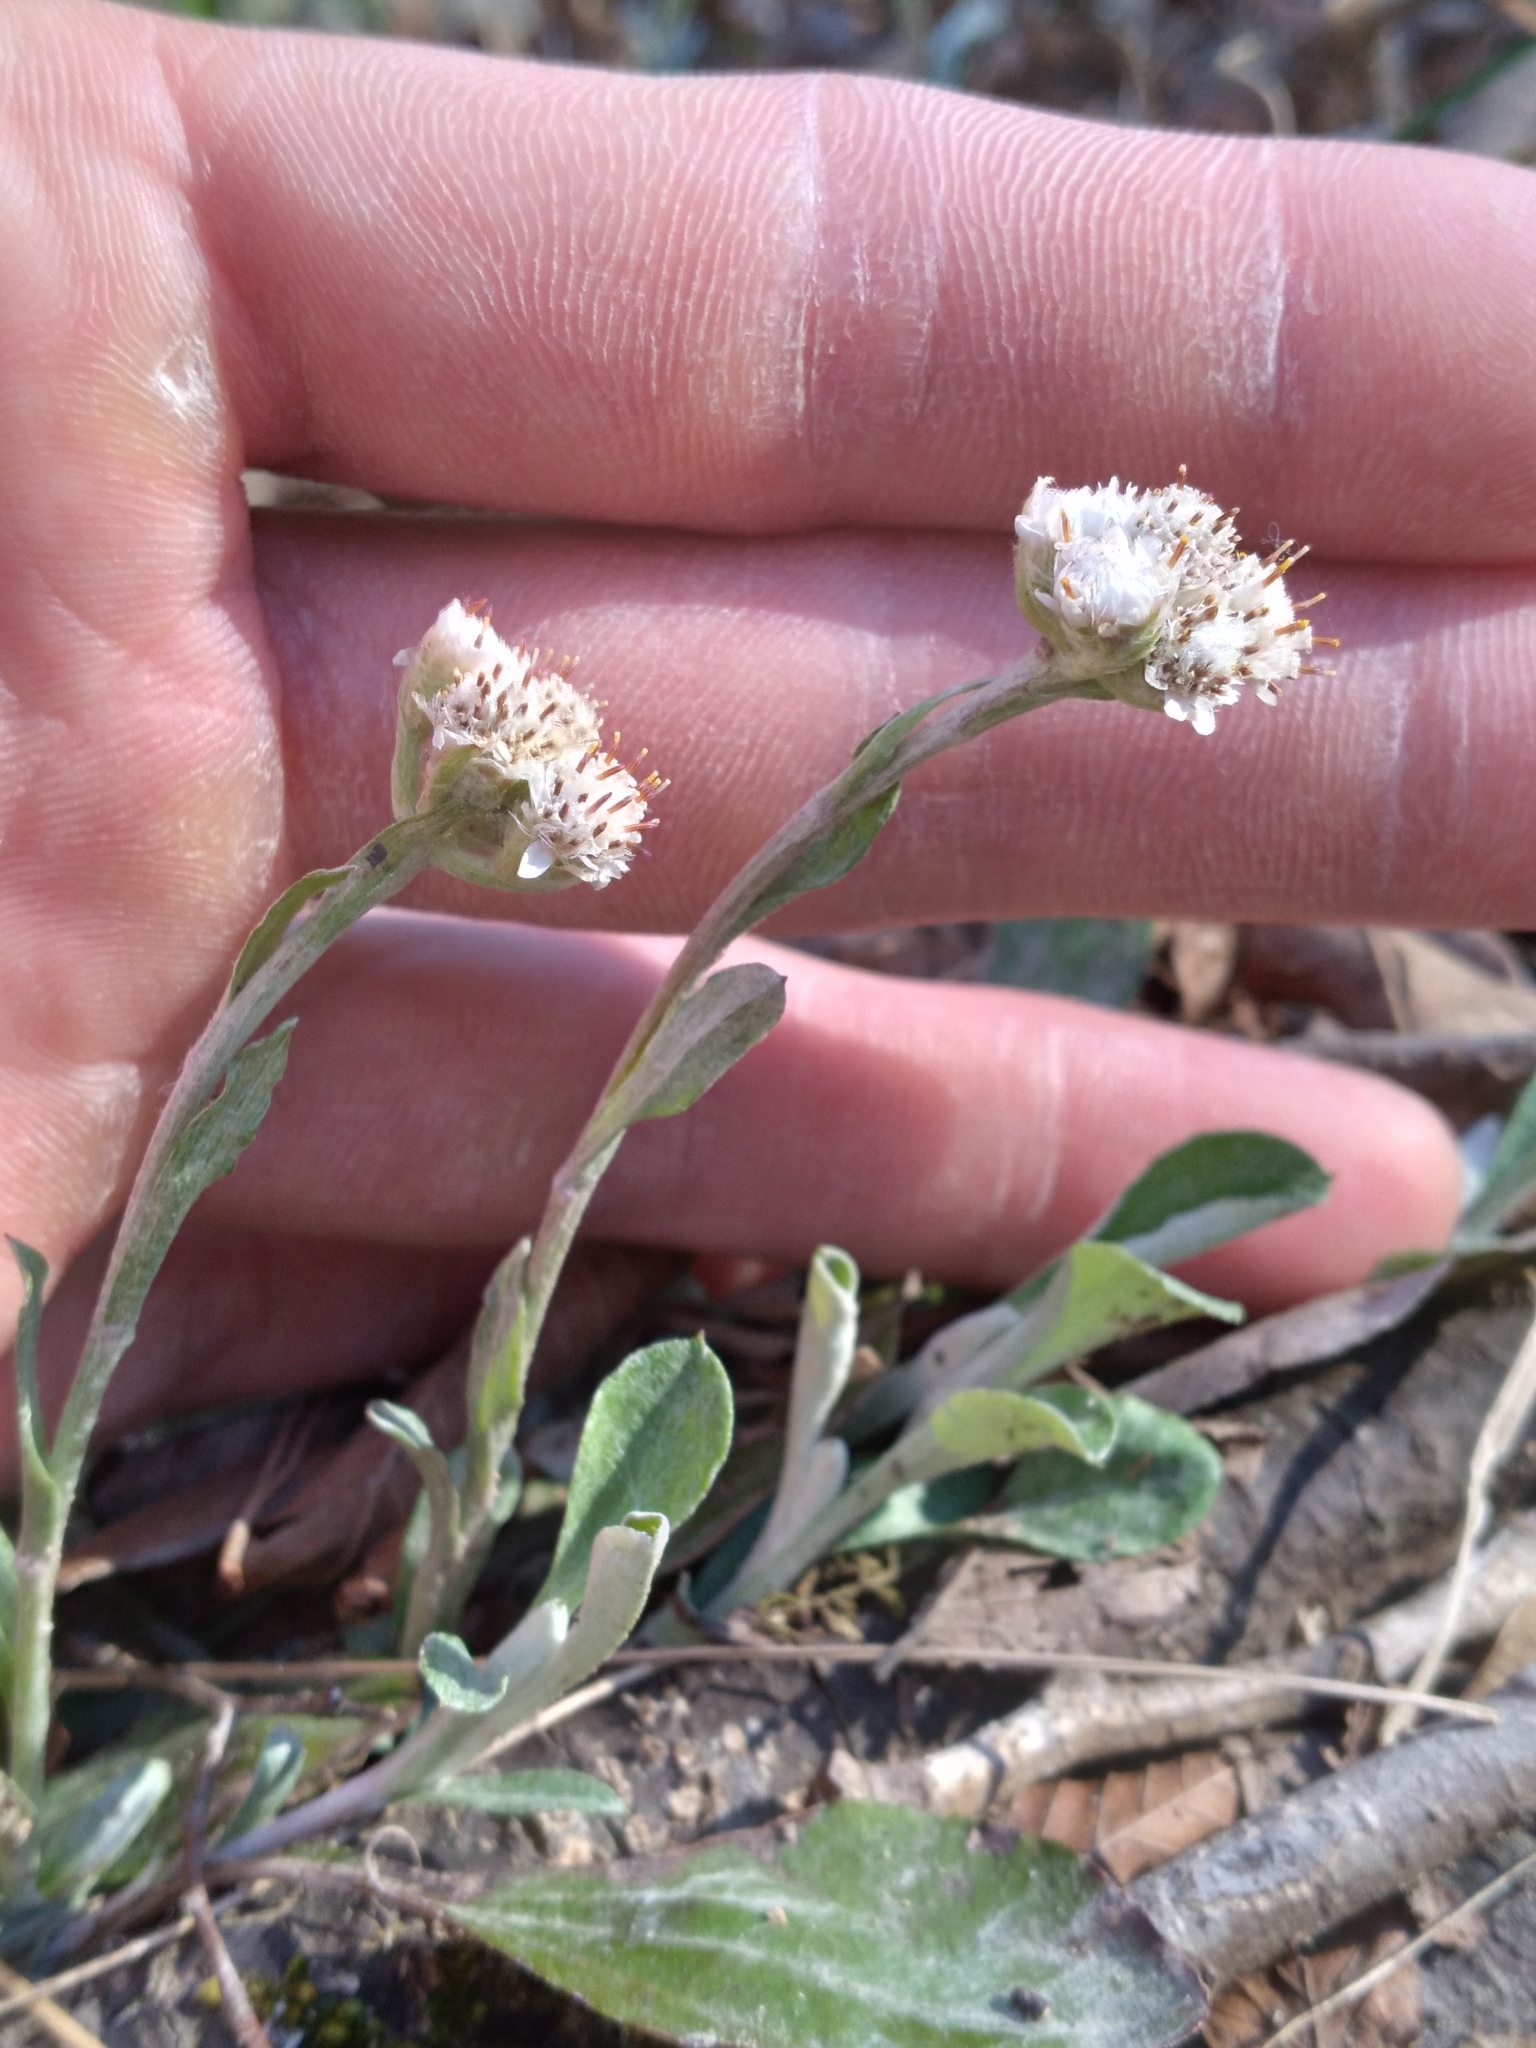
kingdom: Plantae
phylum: Tracheophyta
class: Magnoliopsida
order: Asterales
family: Asteraceae
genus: Antennaria
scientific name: Antennaria plantaginifolia
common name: Plantain-leaved pussytoes
